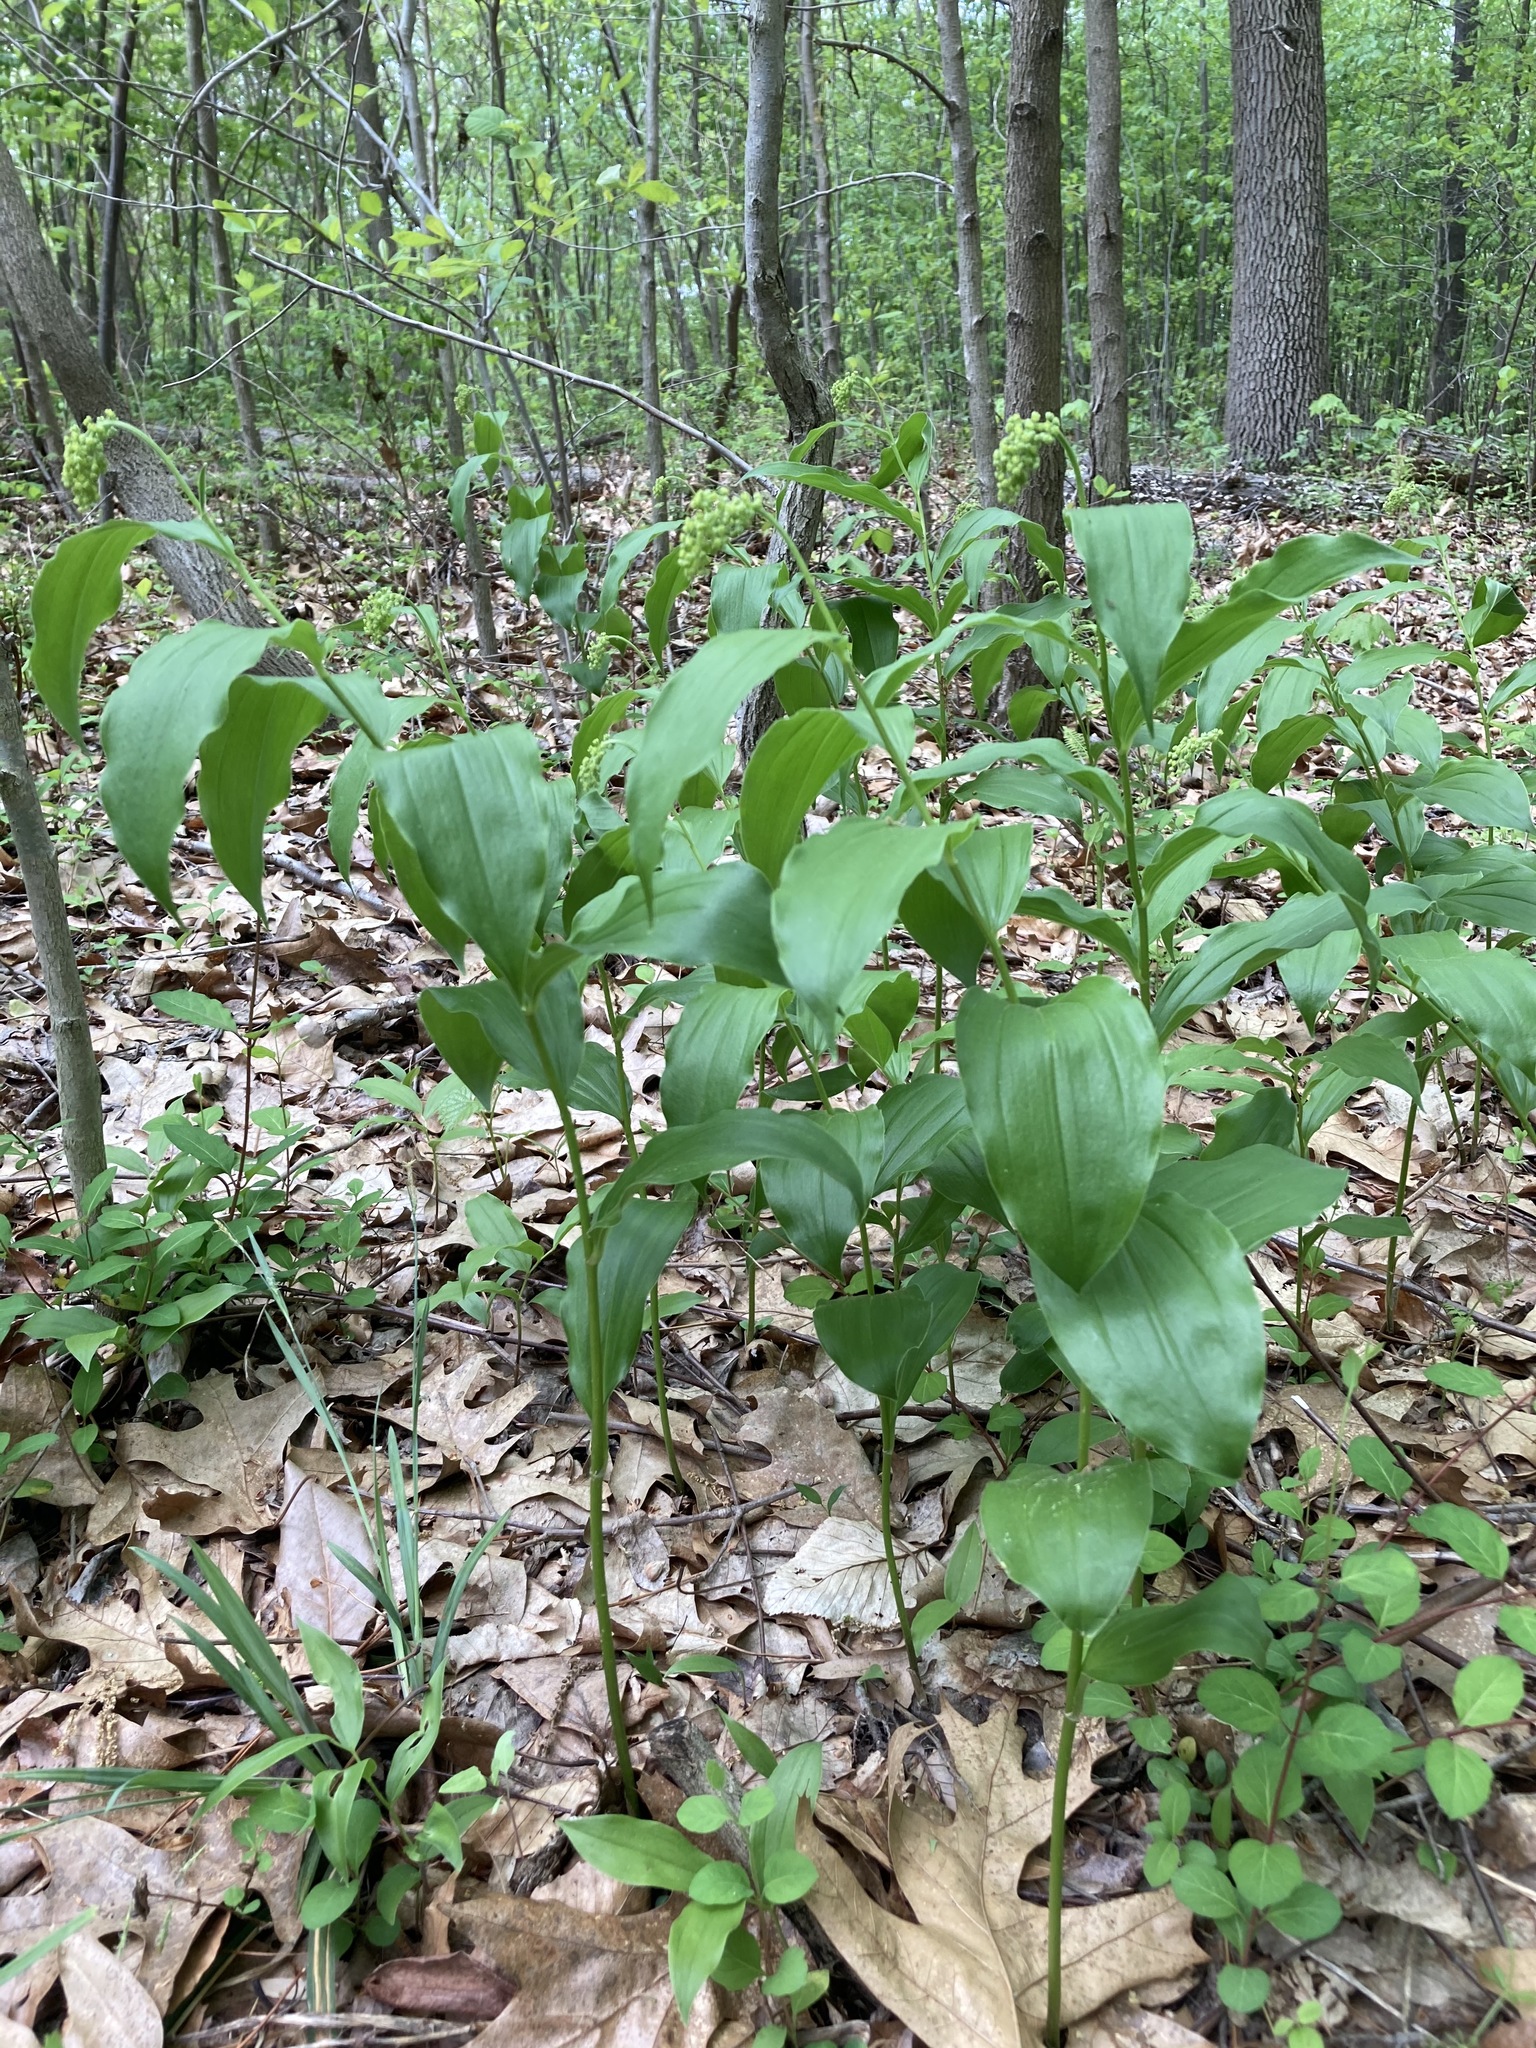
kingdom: Plantae
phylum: Tracheophyta
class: Liliopsida
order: Asparagales
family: Asparagaceae
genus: Maianthemum
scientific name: Maianthemum racemosum
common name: False spikenard
